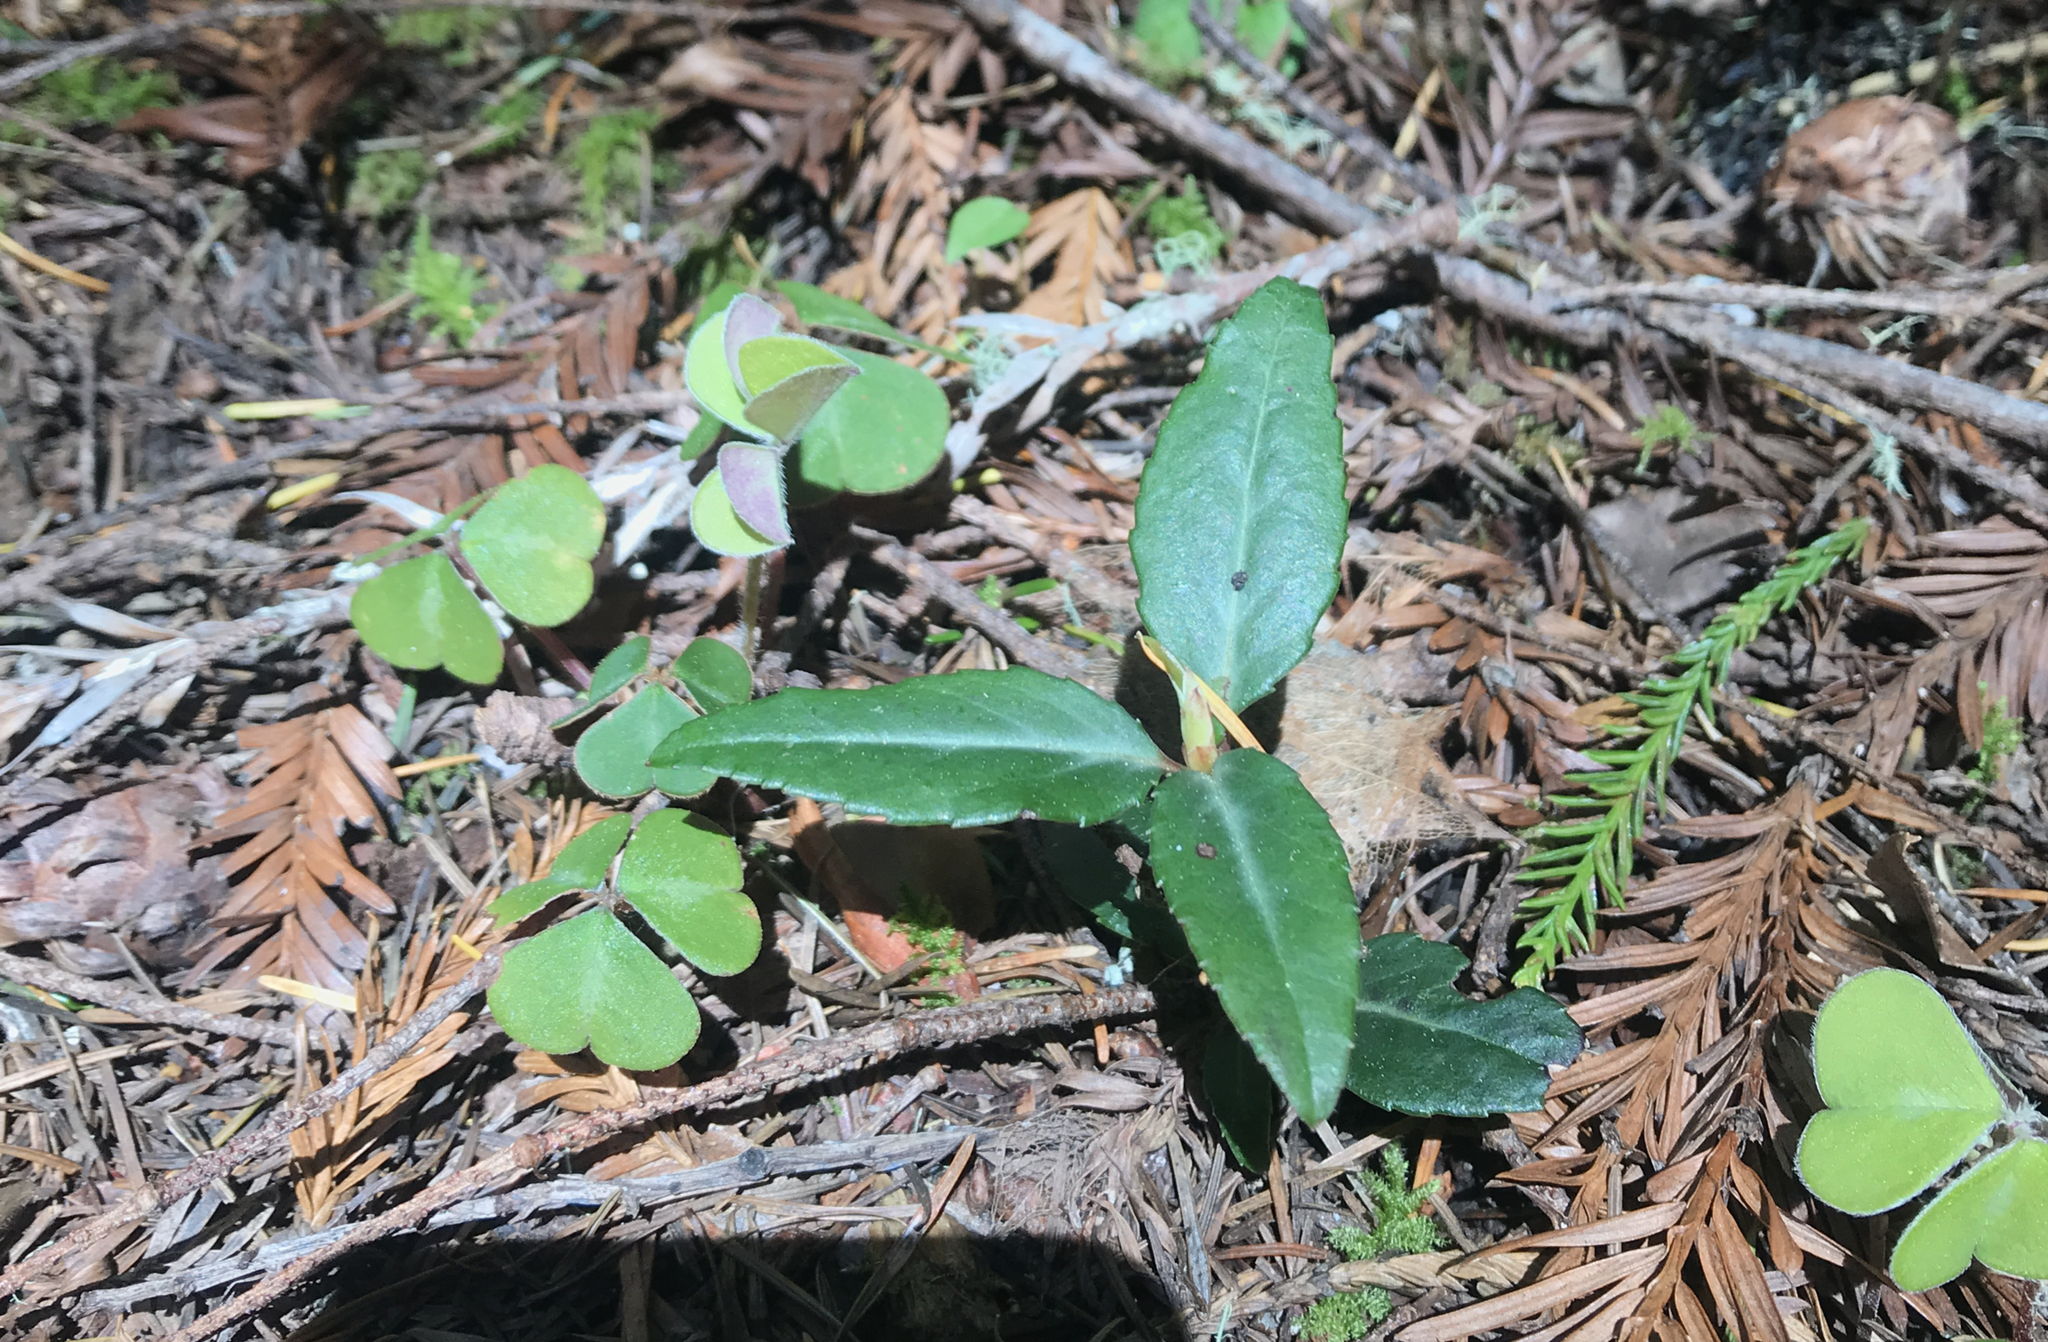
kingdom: Plantae
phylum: Tracheophyta
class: Magnoliopsida
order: Ericales
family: Ericaceae
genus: Chimaphila
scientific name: Chimaphila menziesii
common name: Menzies' pipsissewa
